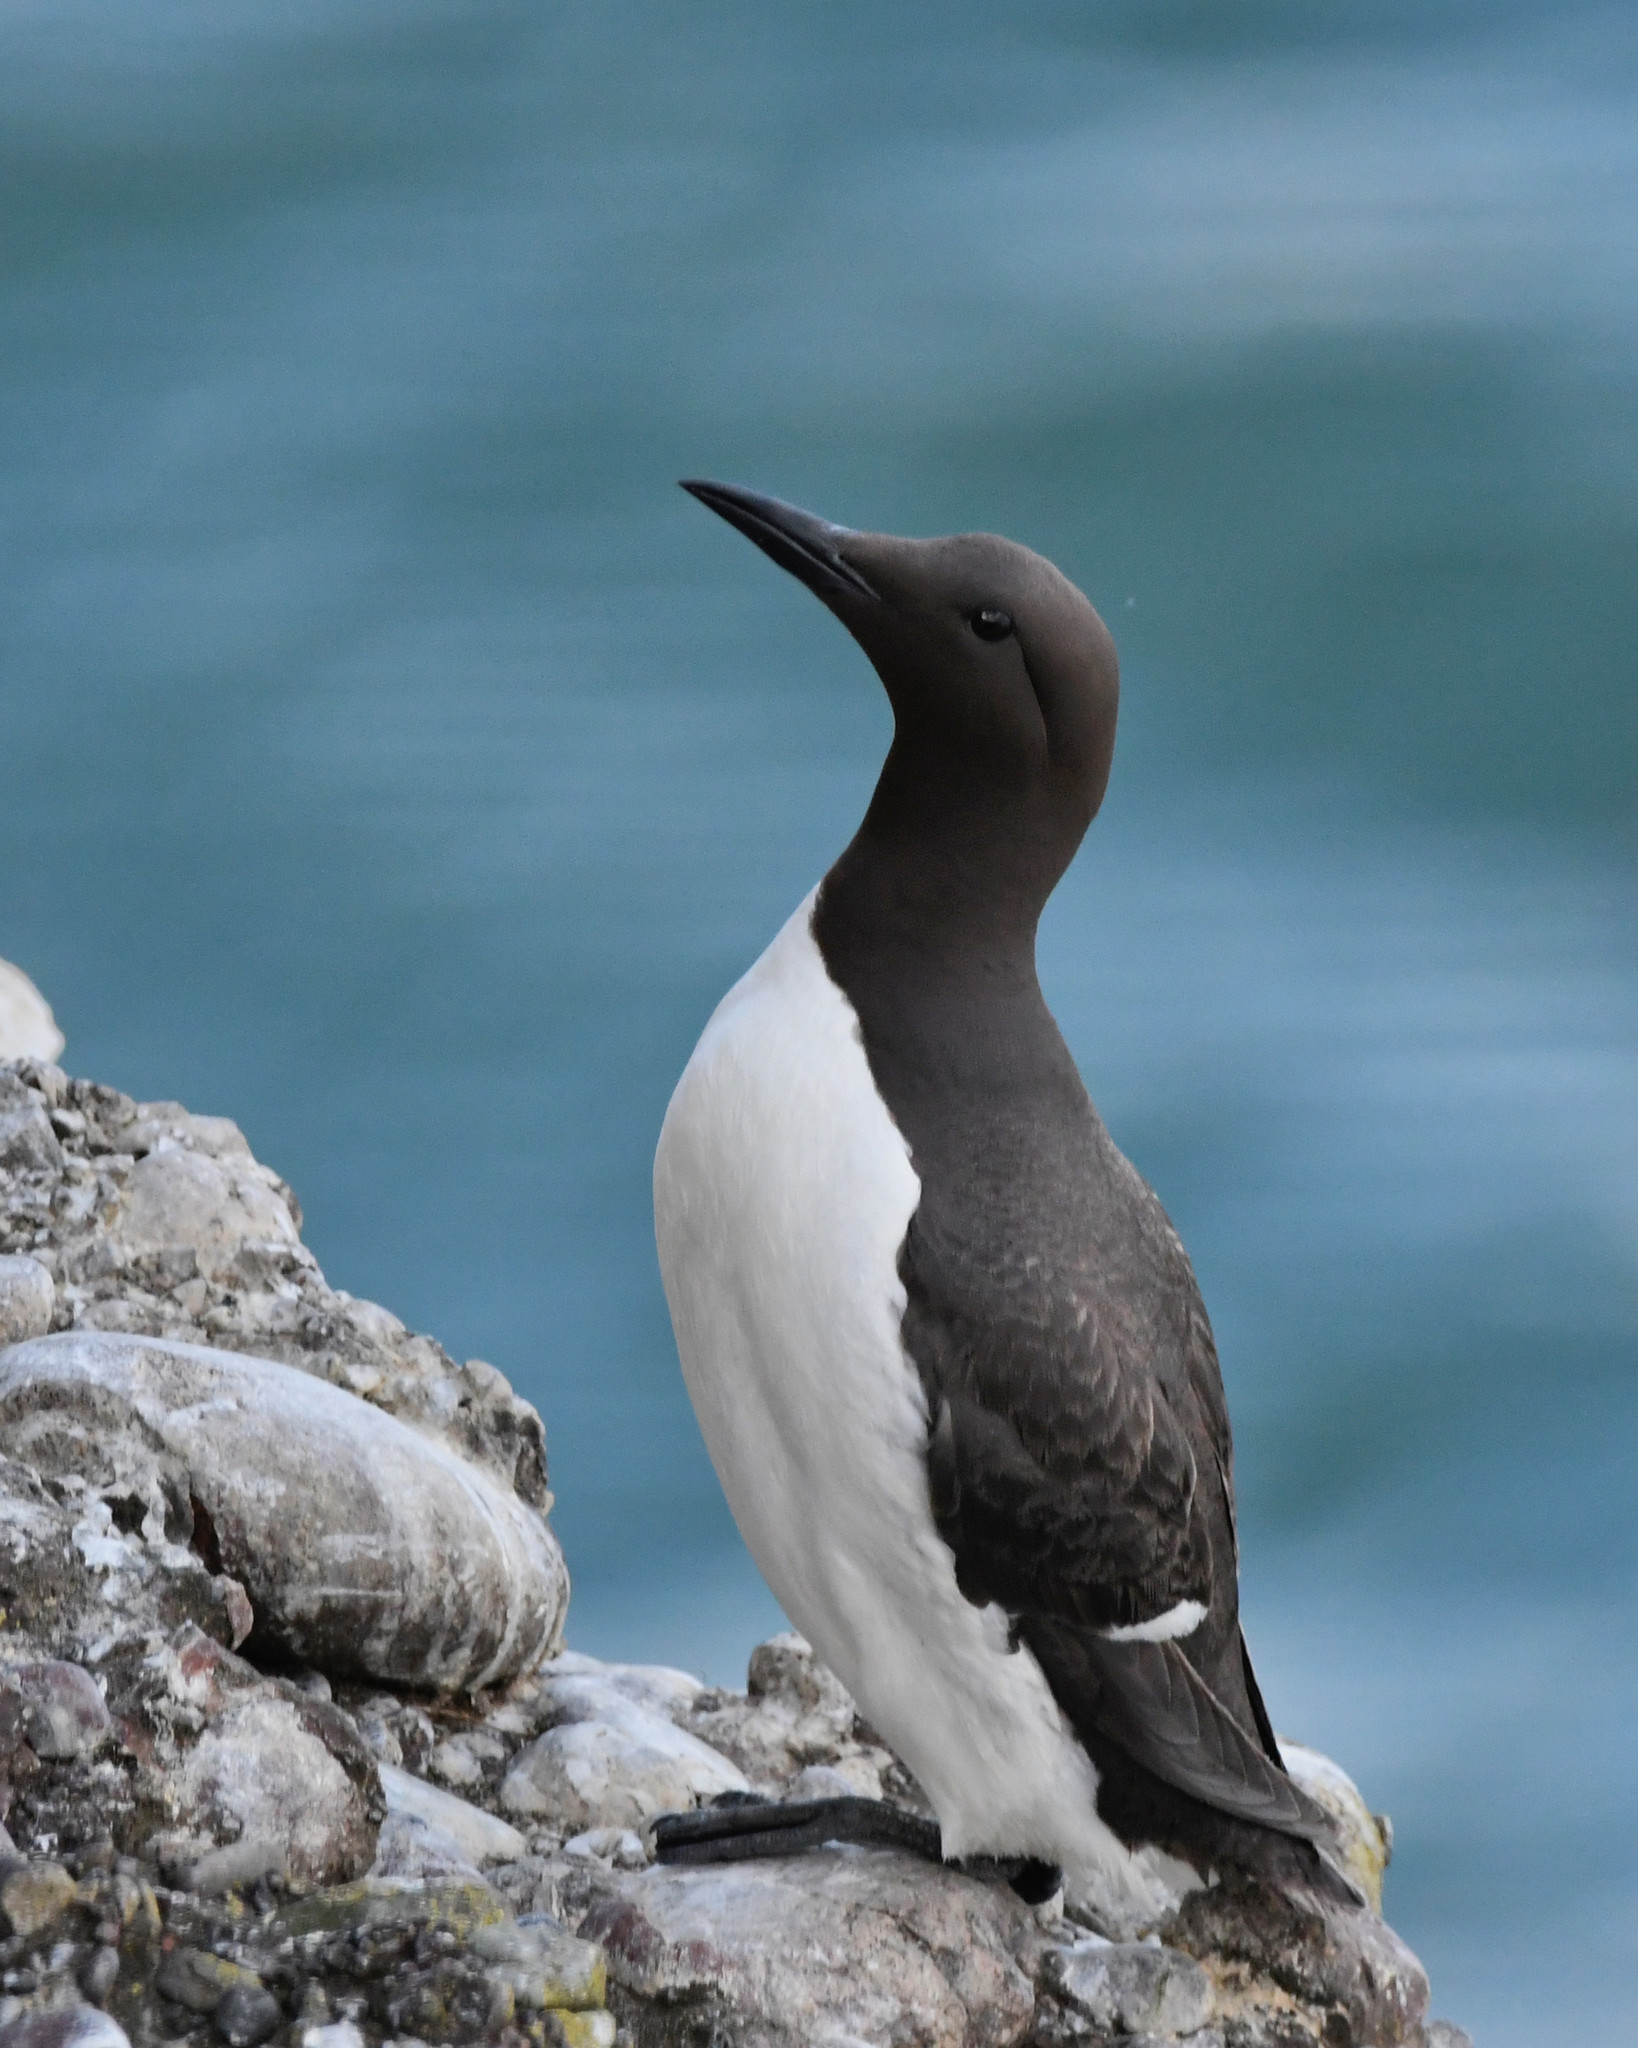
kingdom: Animalia
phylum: Chordata
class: Aves
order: Charadriiformes
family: Alcidae
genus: Uria
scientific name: Uria aalge
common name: Common murre
